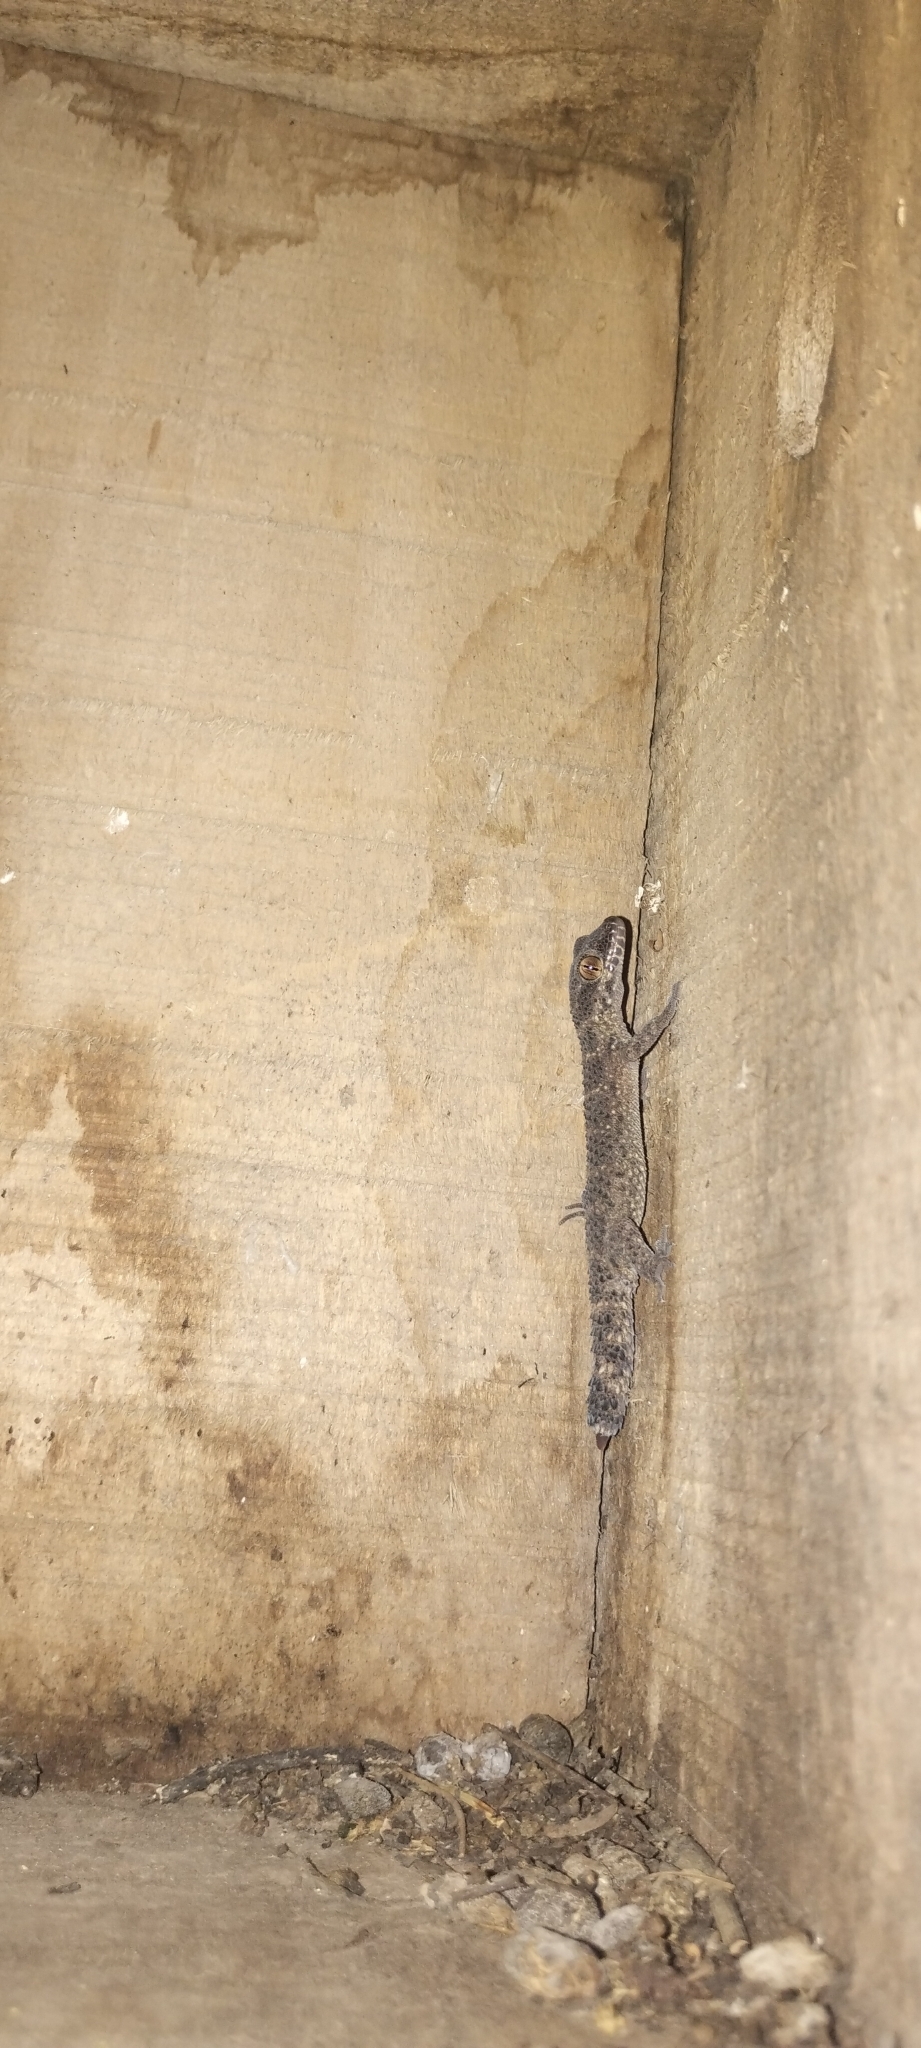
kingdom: Animalia
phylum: Chordata
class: Squamata
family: Phyllodactylidae
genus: Homonota
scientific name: Homonota horrida
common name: South american marked gecko
